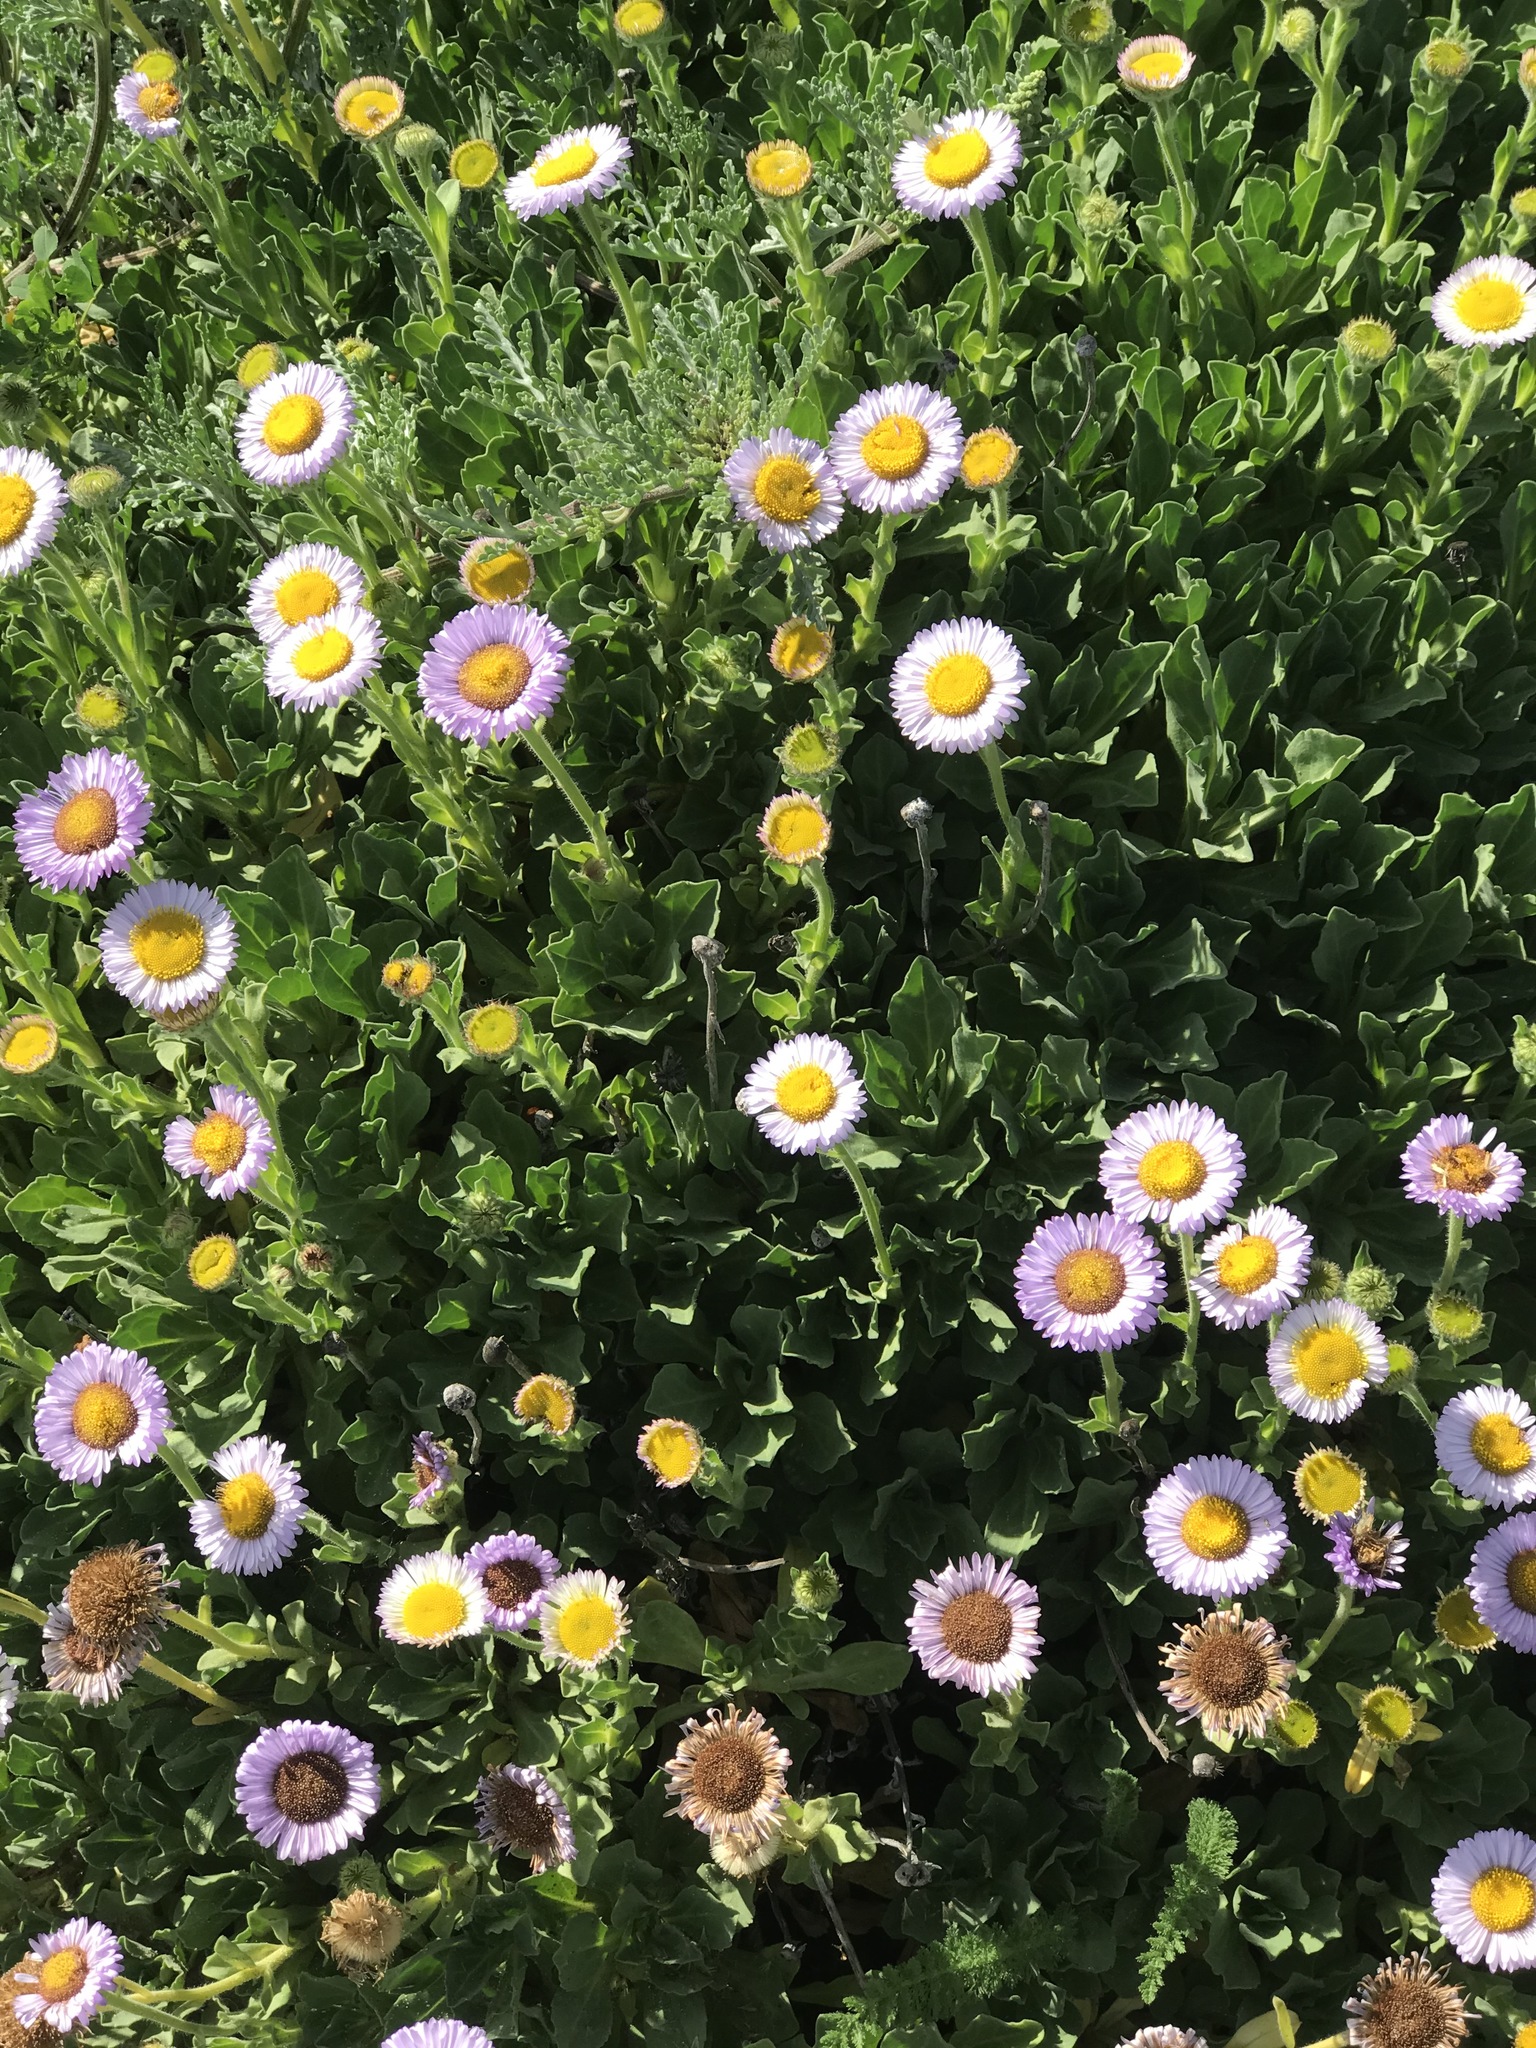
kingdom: Plantae
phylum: Tracheophyta
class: Magnoliopsida
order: Asterales
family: Asteraceae
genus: Erigeron
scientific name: Erigeron glaucus
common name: Seaside daisy
